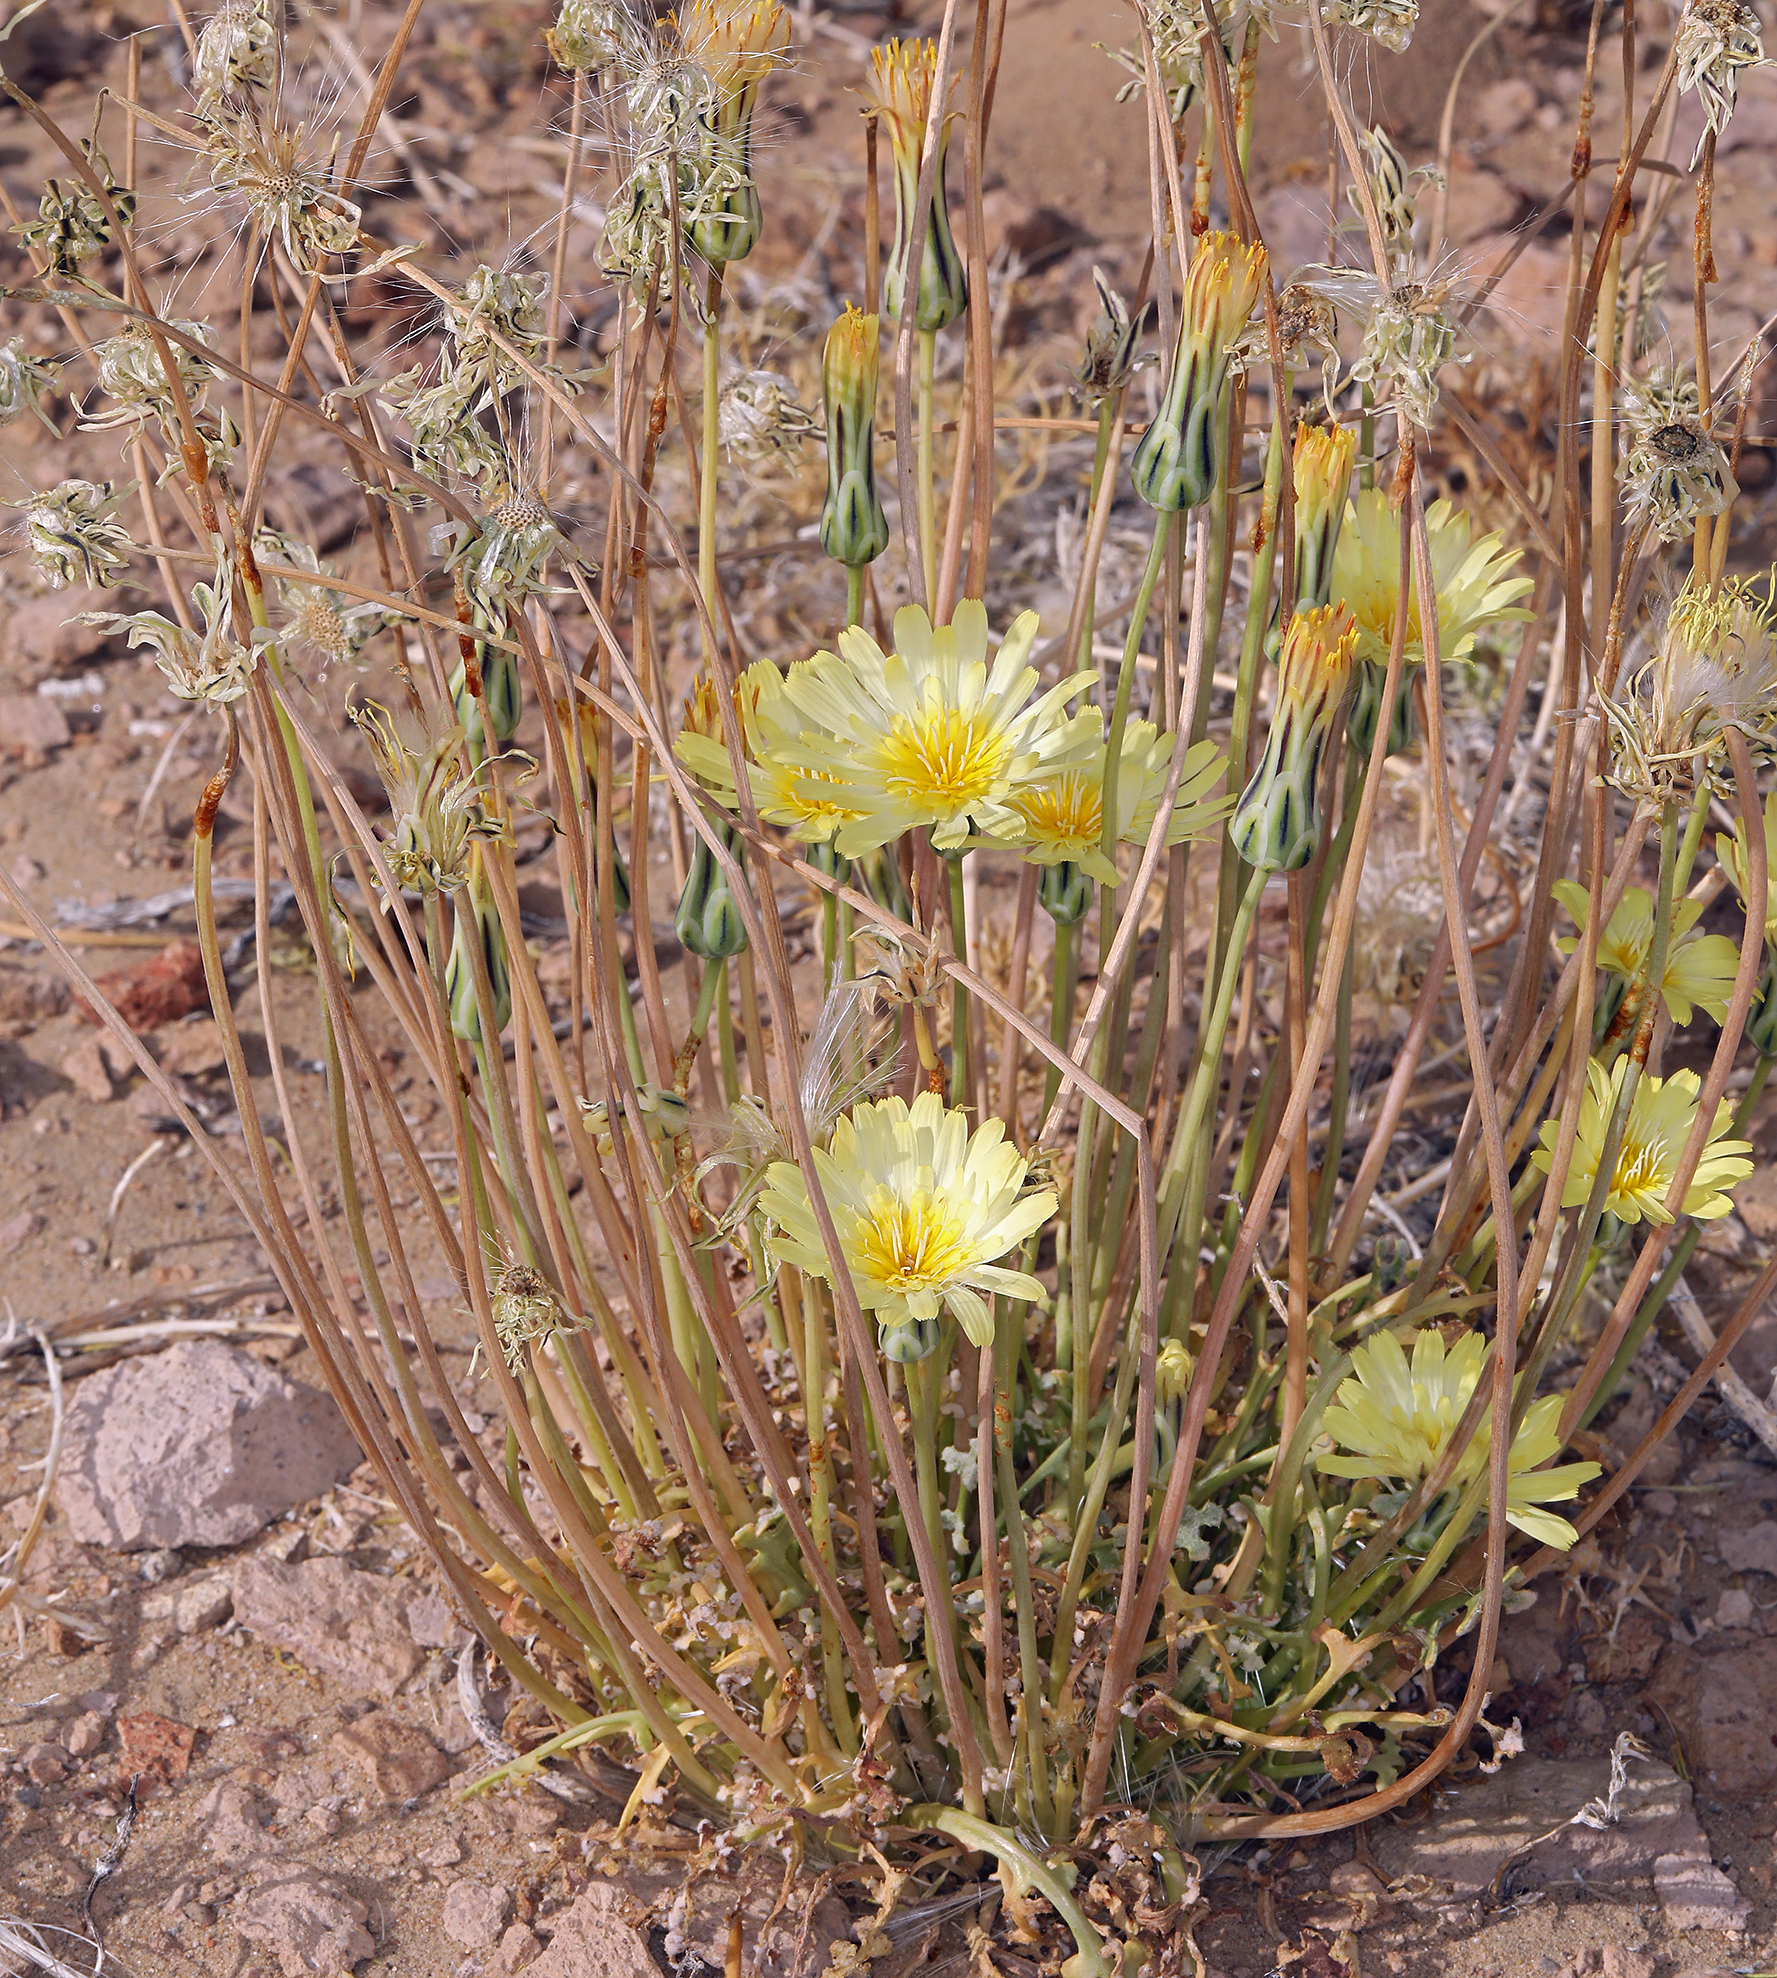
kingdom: Plantae
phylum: Tracheophyta
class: Magnoliopsida
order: Asterales
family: Asteraceae
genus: Anisocoma
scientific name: Anisocoma acaulis
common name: Scalebud
